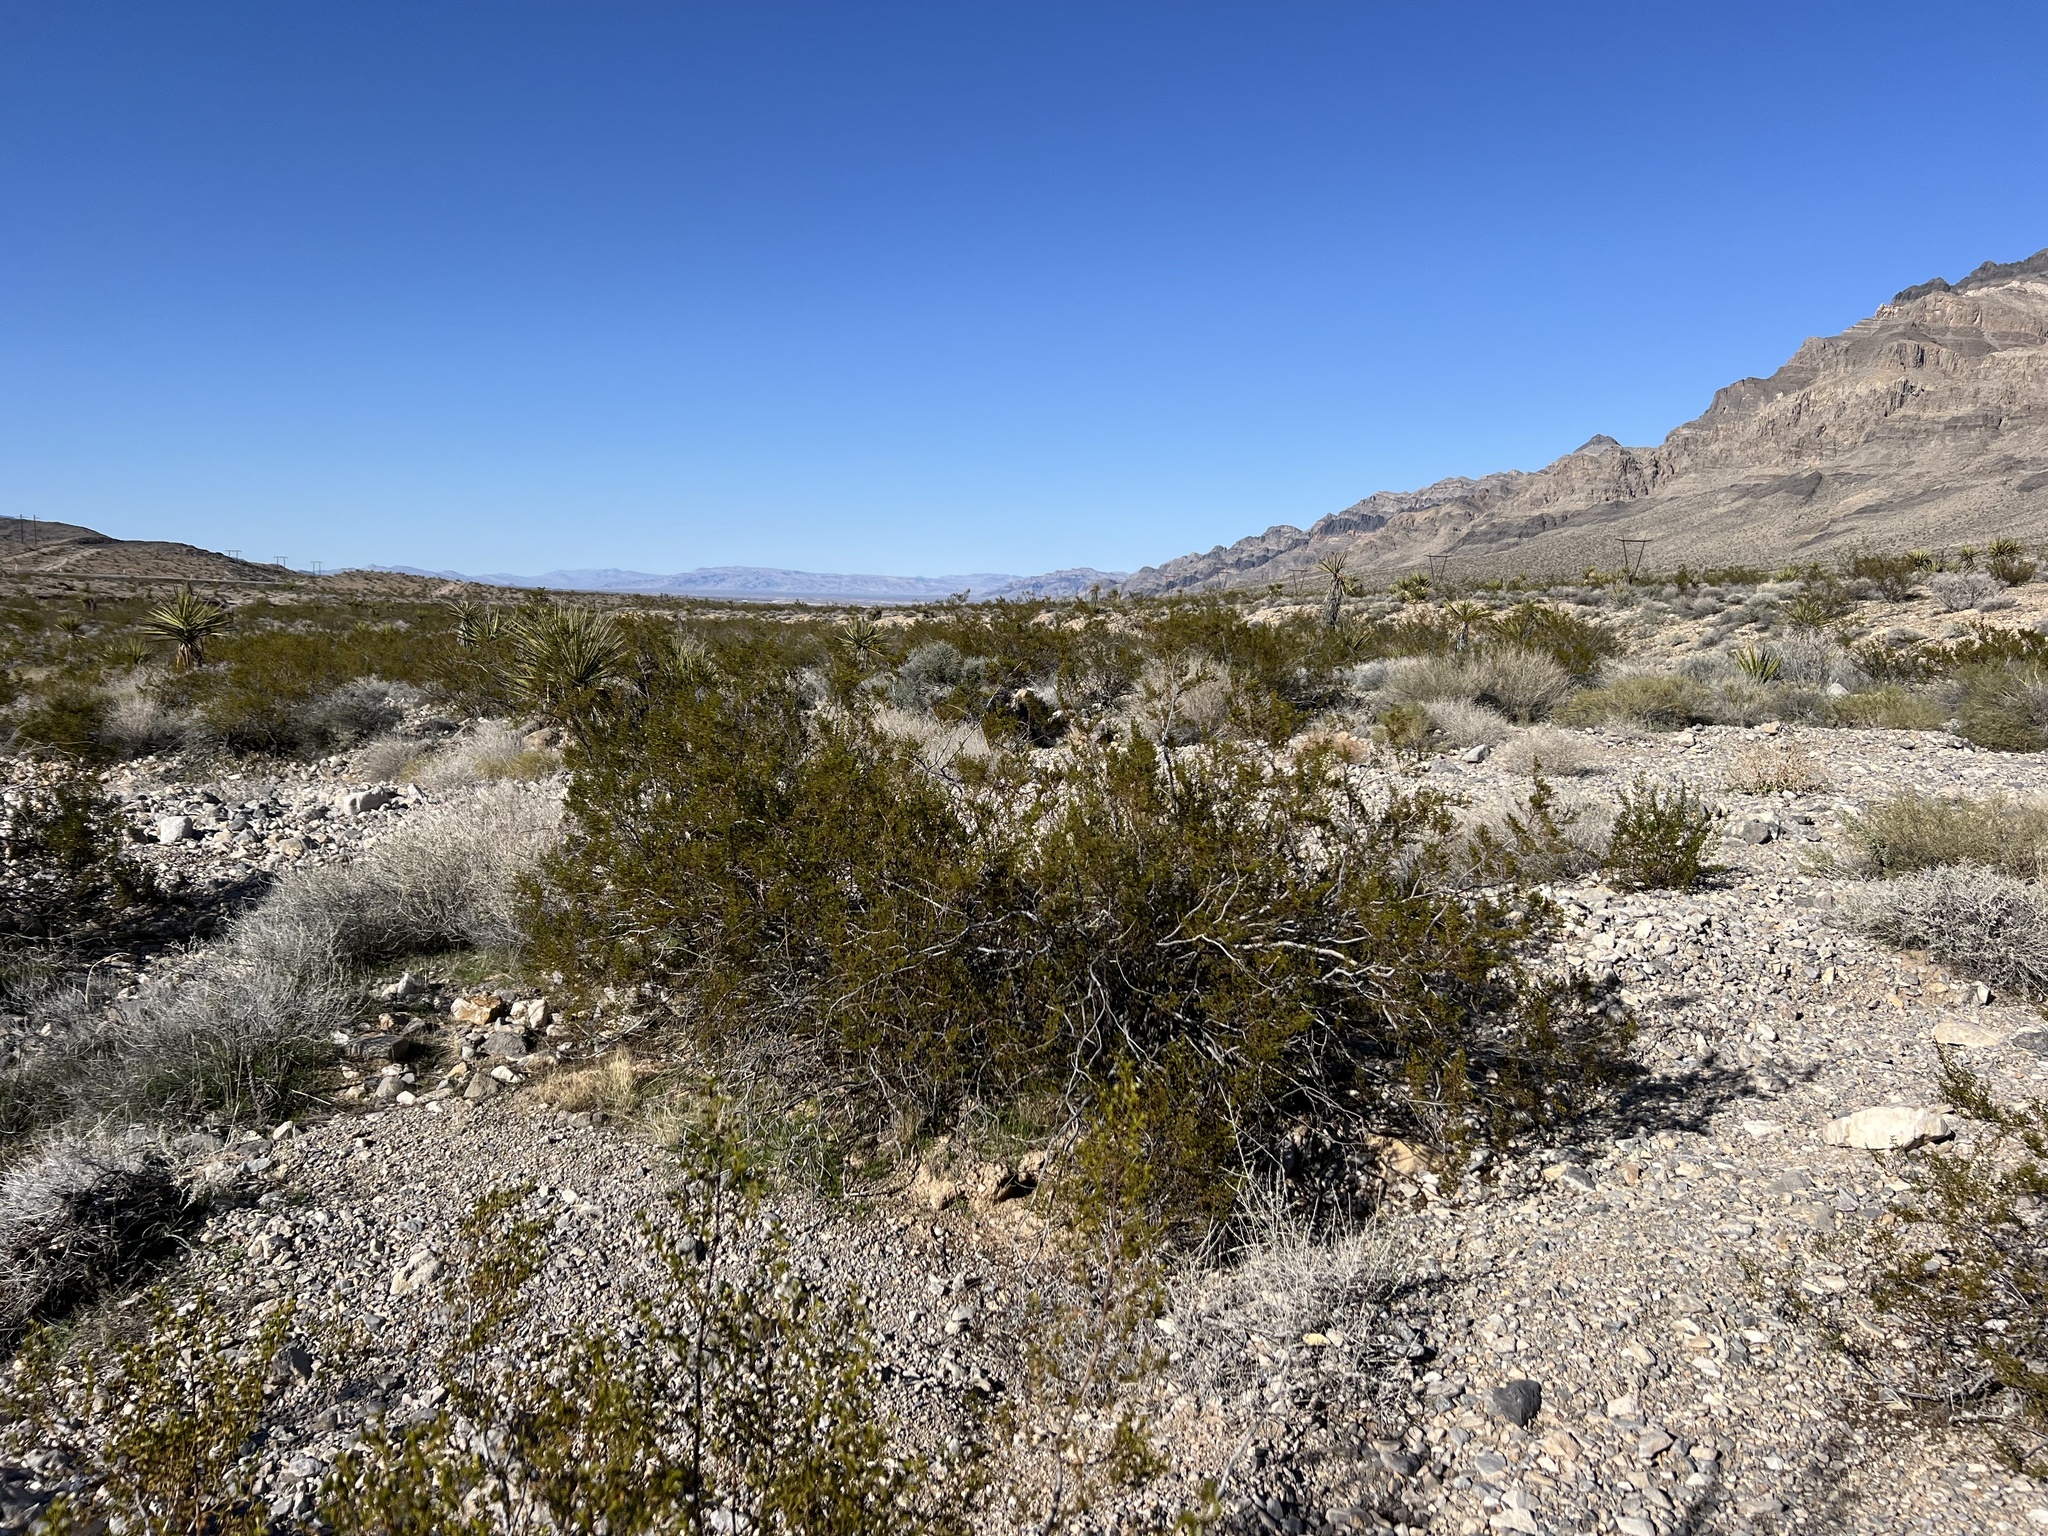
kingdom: Plantae
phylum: Tracheophyta
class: Magnoliopsida
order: Zygophyllales
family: Zygophyllaceae
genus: Larrea
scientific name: Larrea tridentata
